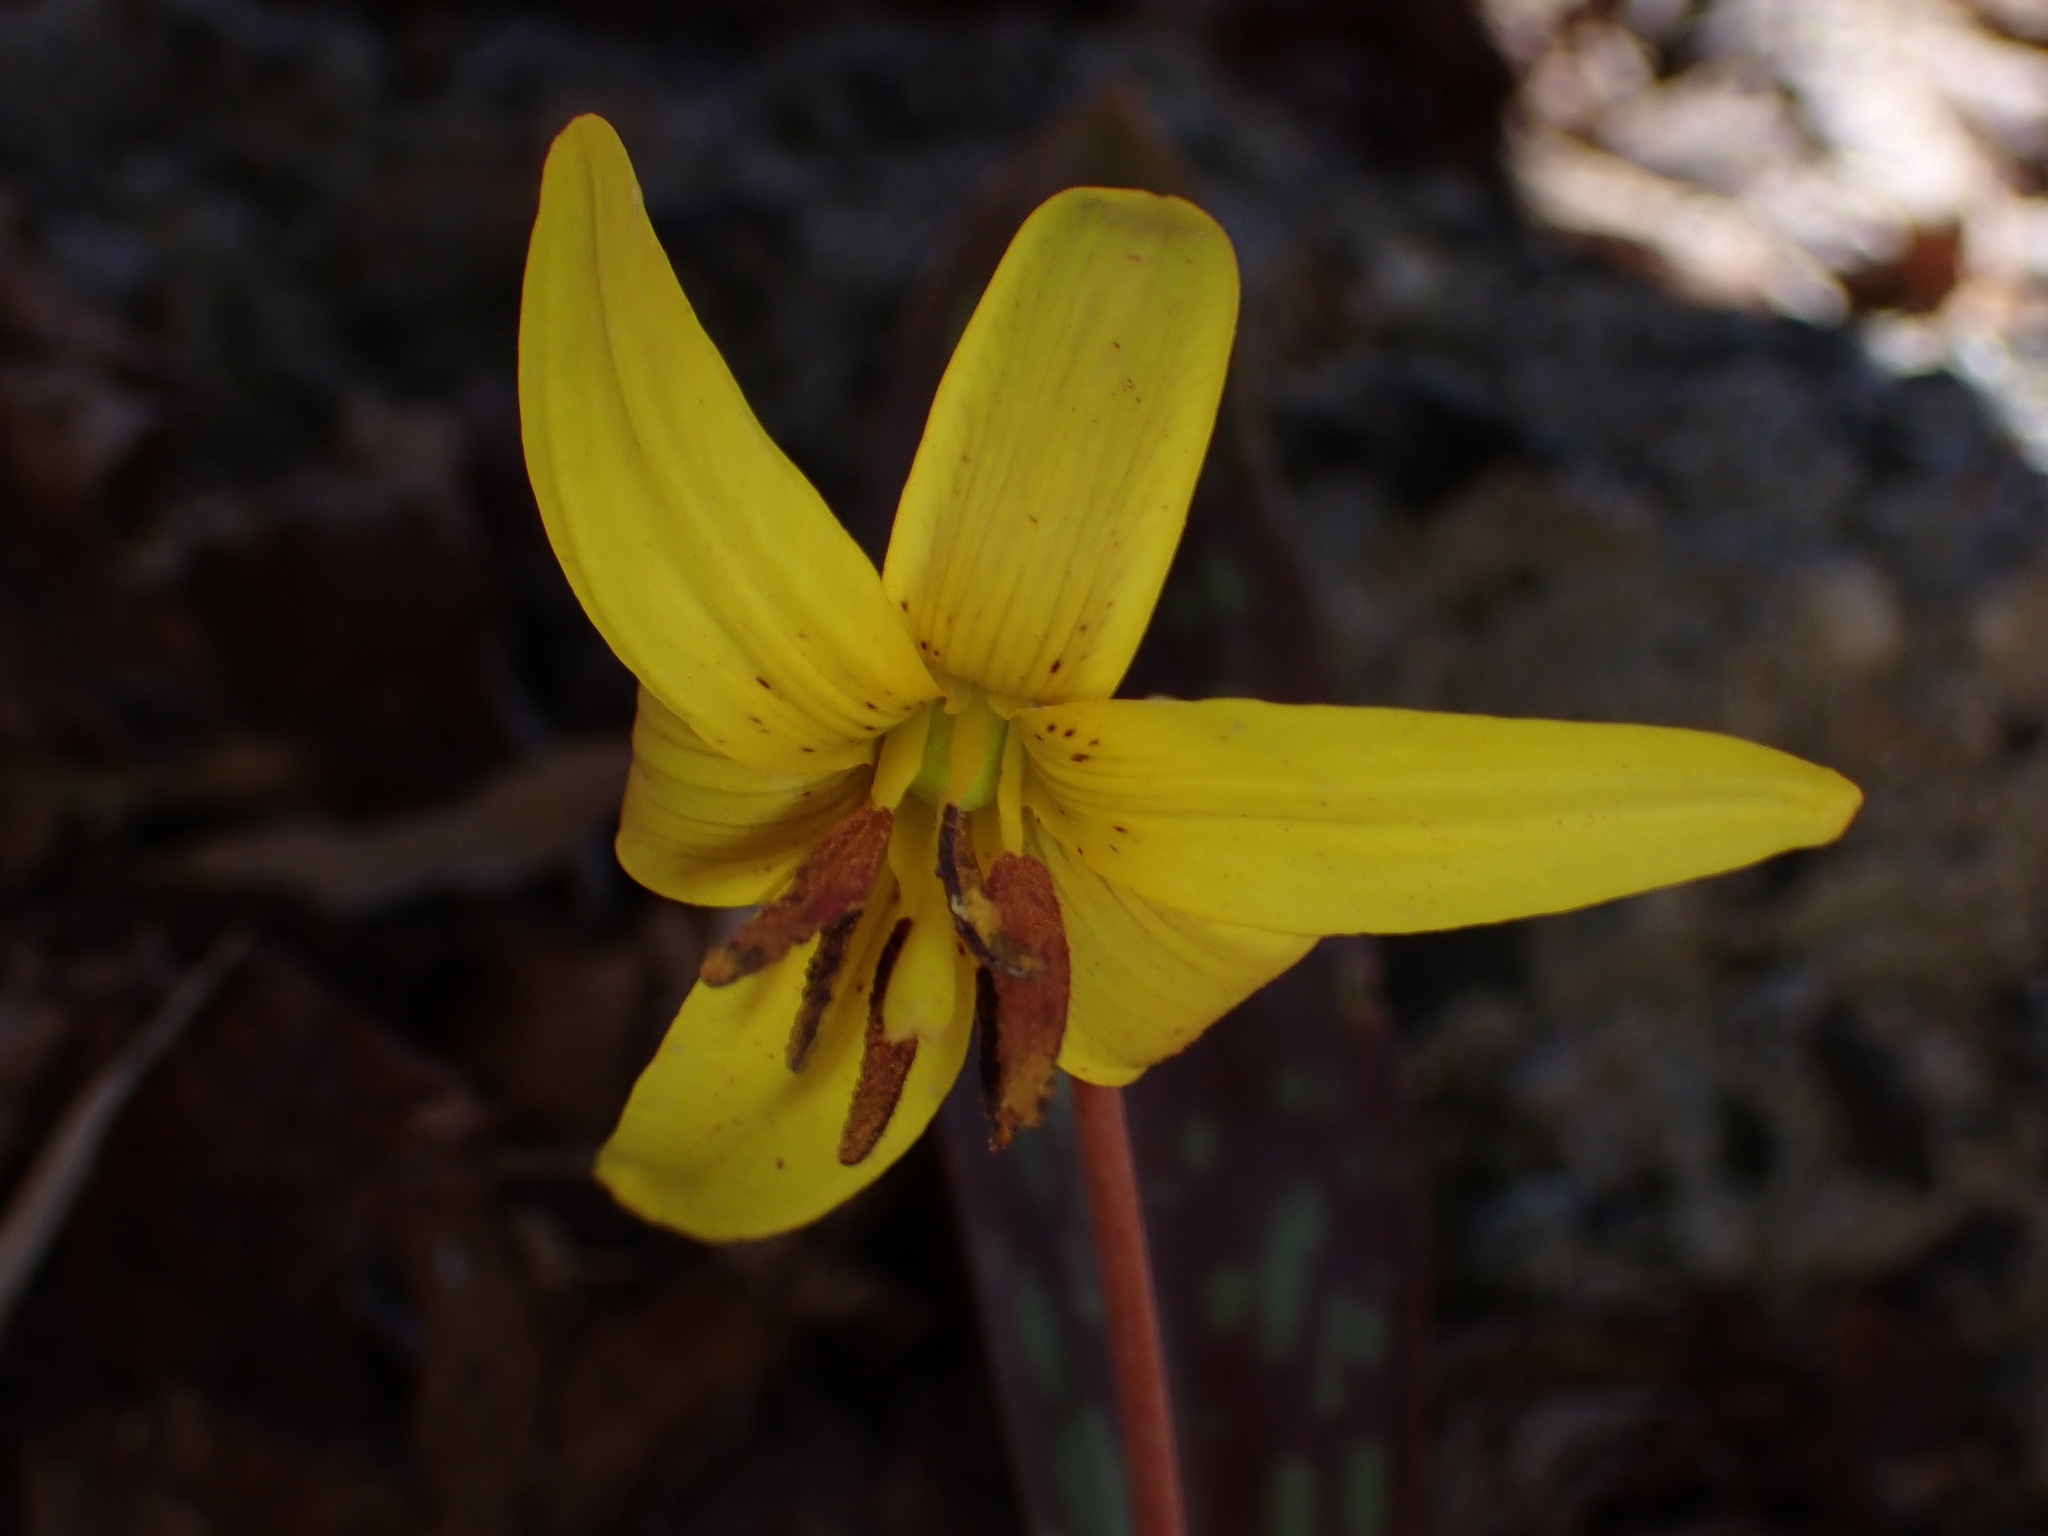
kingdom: Plantae
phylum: Tracheophyta
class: Liliopsida
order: Liliales
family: Liliaceae
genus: Erythronium
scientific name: Erythronium americanum
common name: Yellow adder's-tongue
